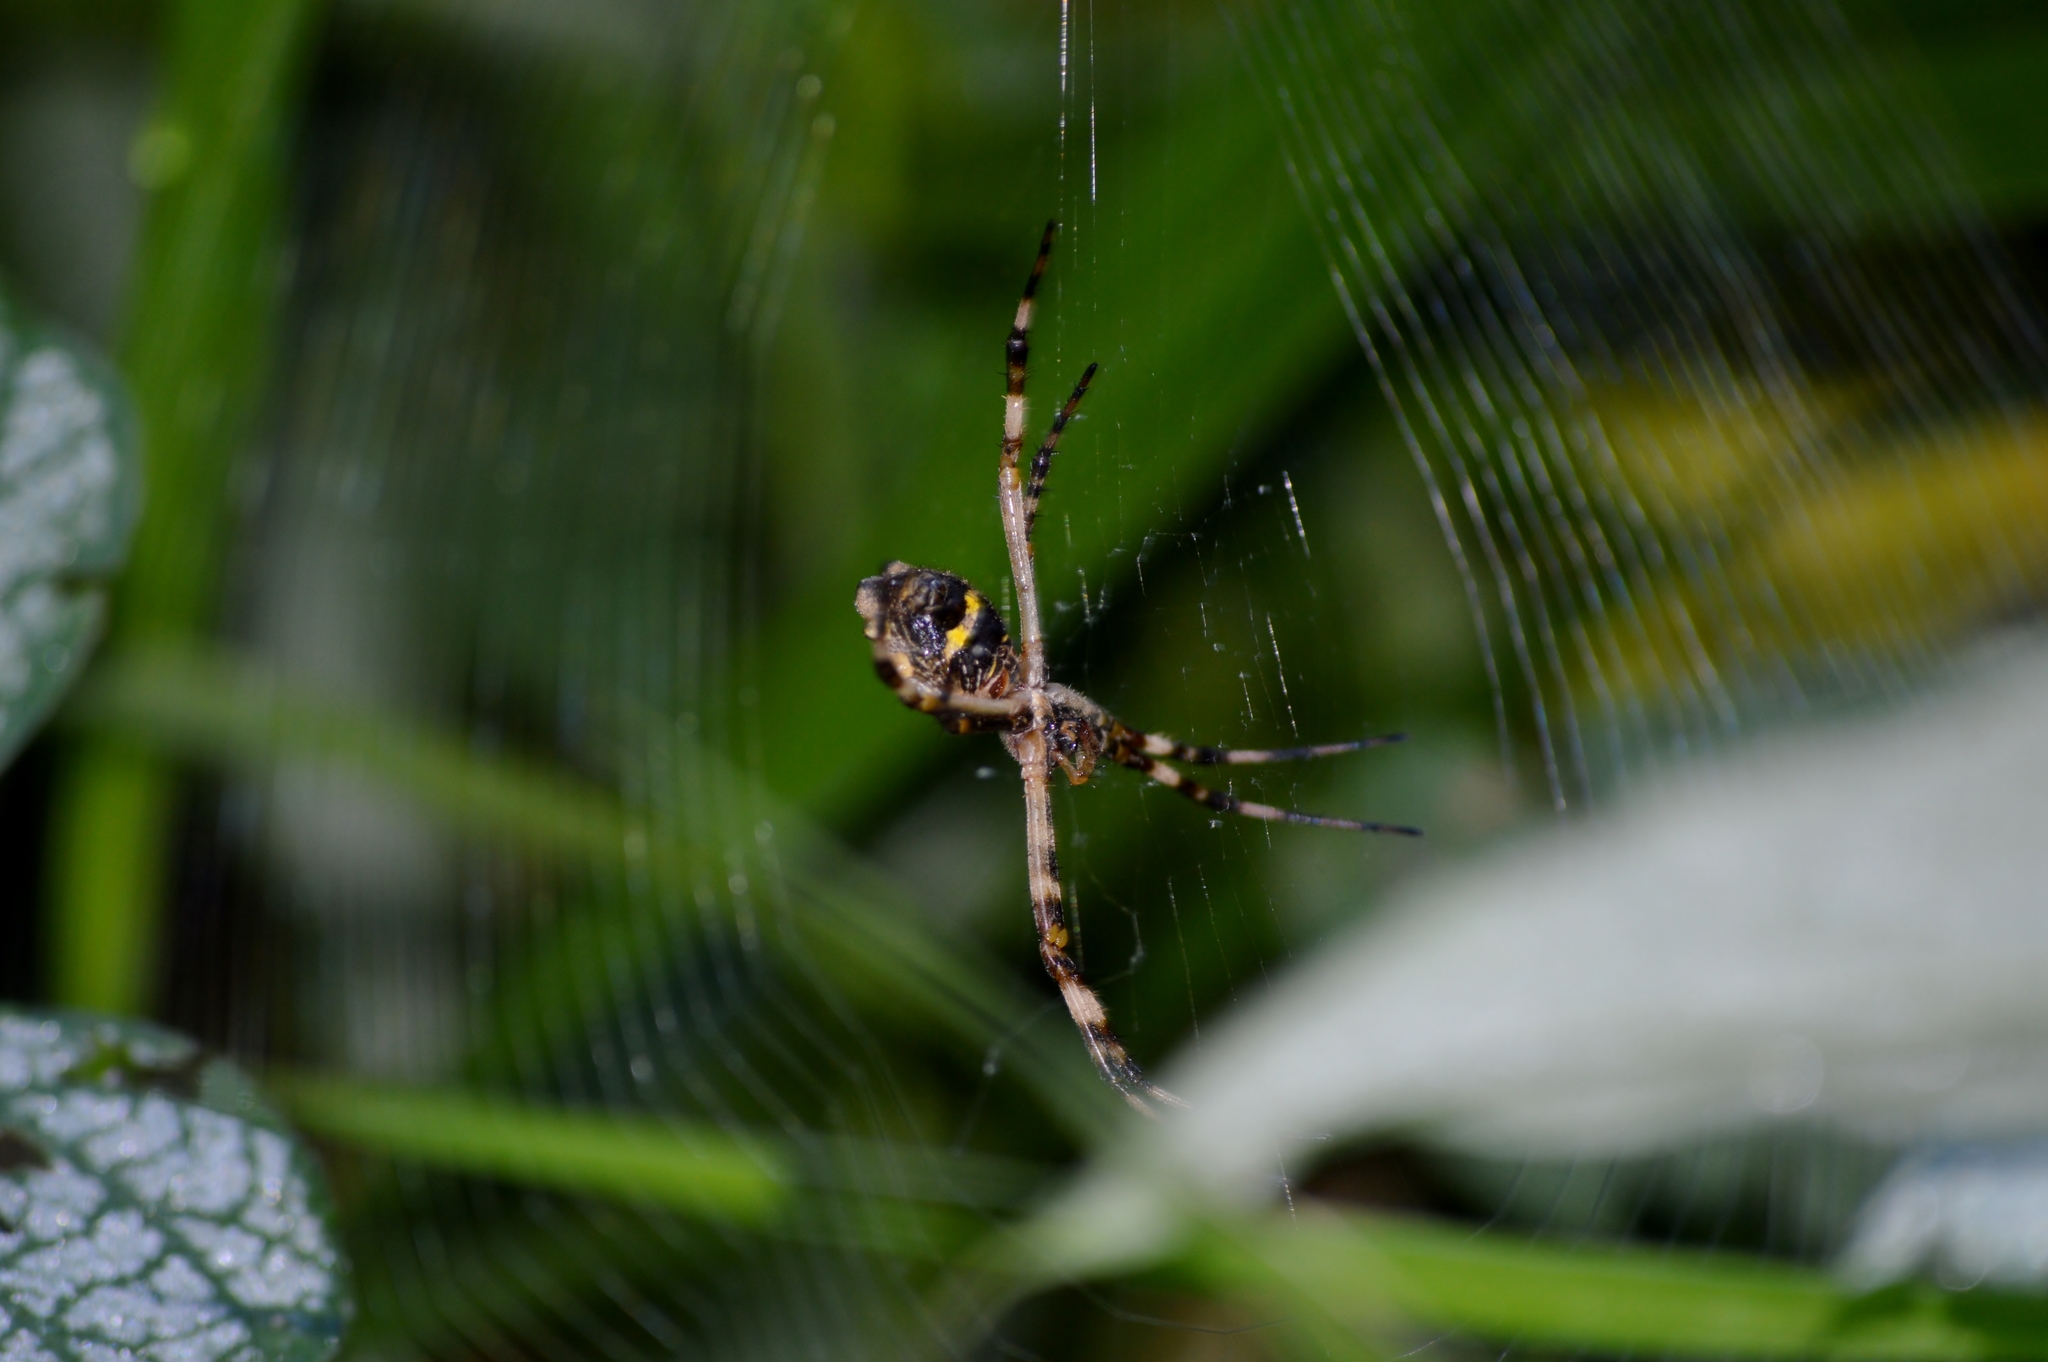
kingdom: Animalia
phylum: Arthropoda
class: Arachnida
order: Araneae
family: Araneidae
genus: Argiope
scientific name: Argiope argentata
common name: Orb weavers
